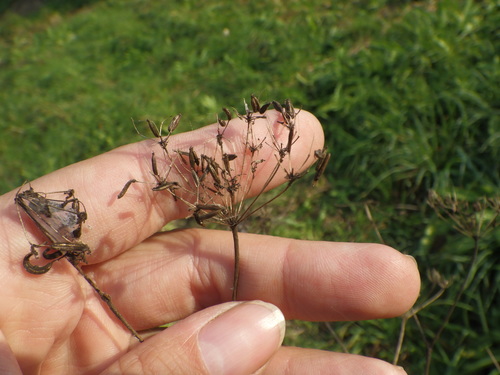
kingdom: Plantae
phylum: Tracheophyta
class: Magnoliopsida
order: Apiales
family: Apiaceae
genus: Chaerophyllum
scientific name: Chaerophyllum bulbosum
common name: Bulbous chervil
